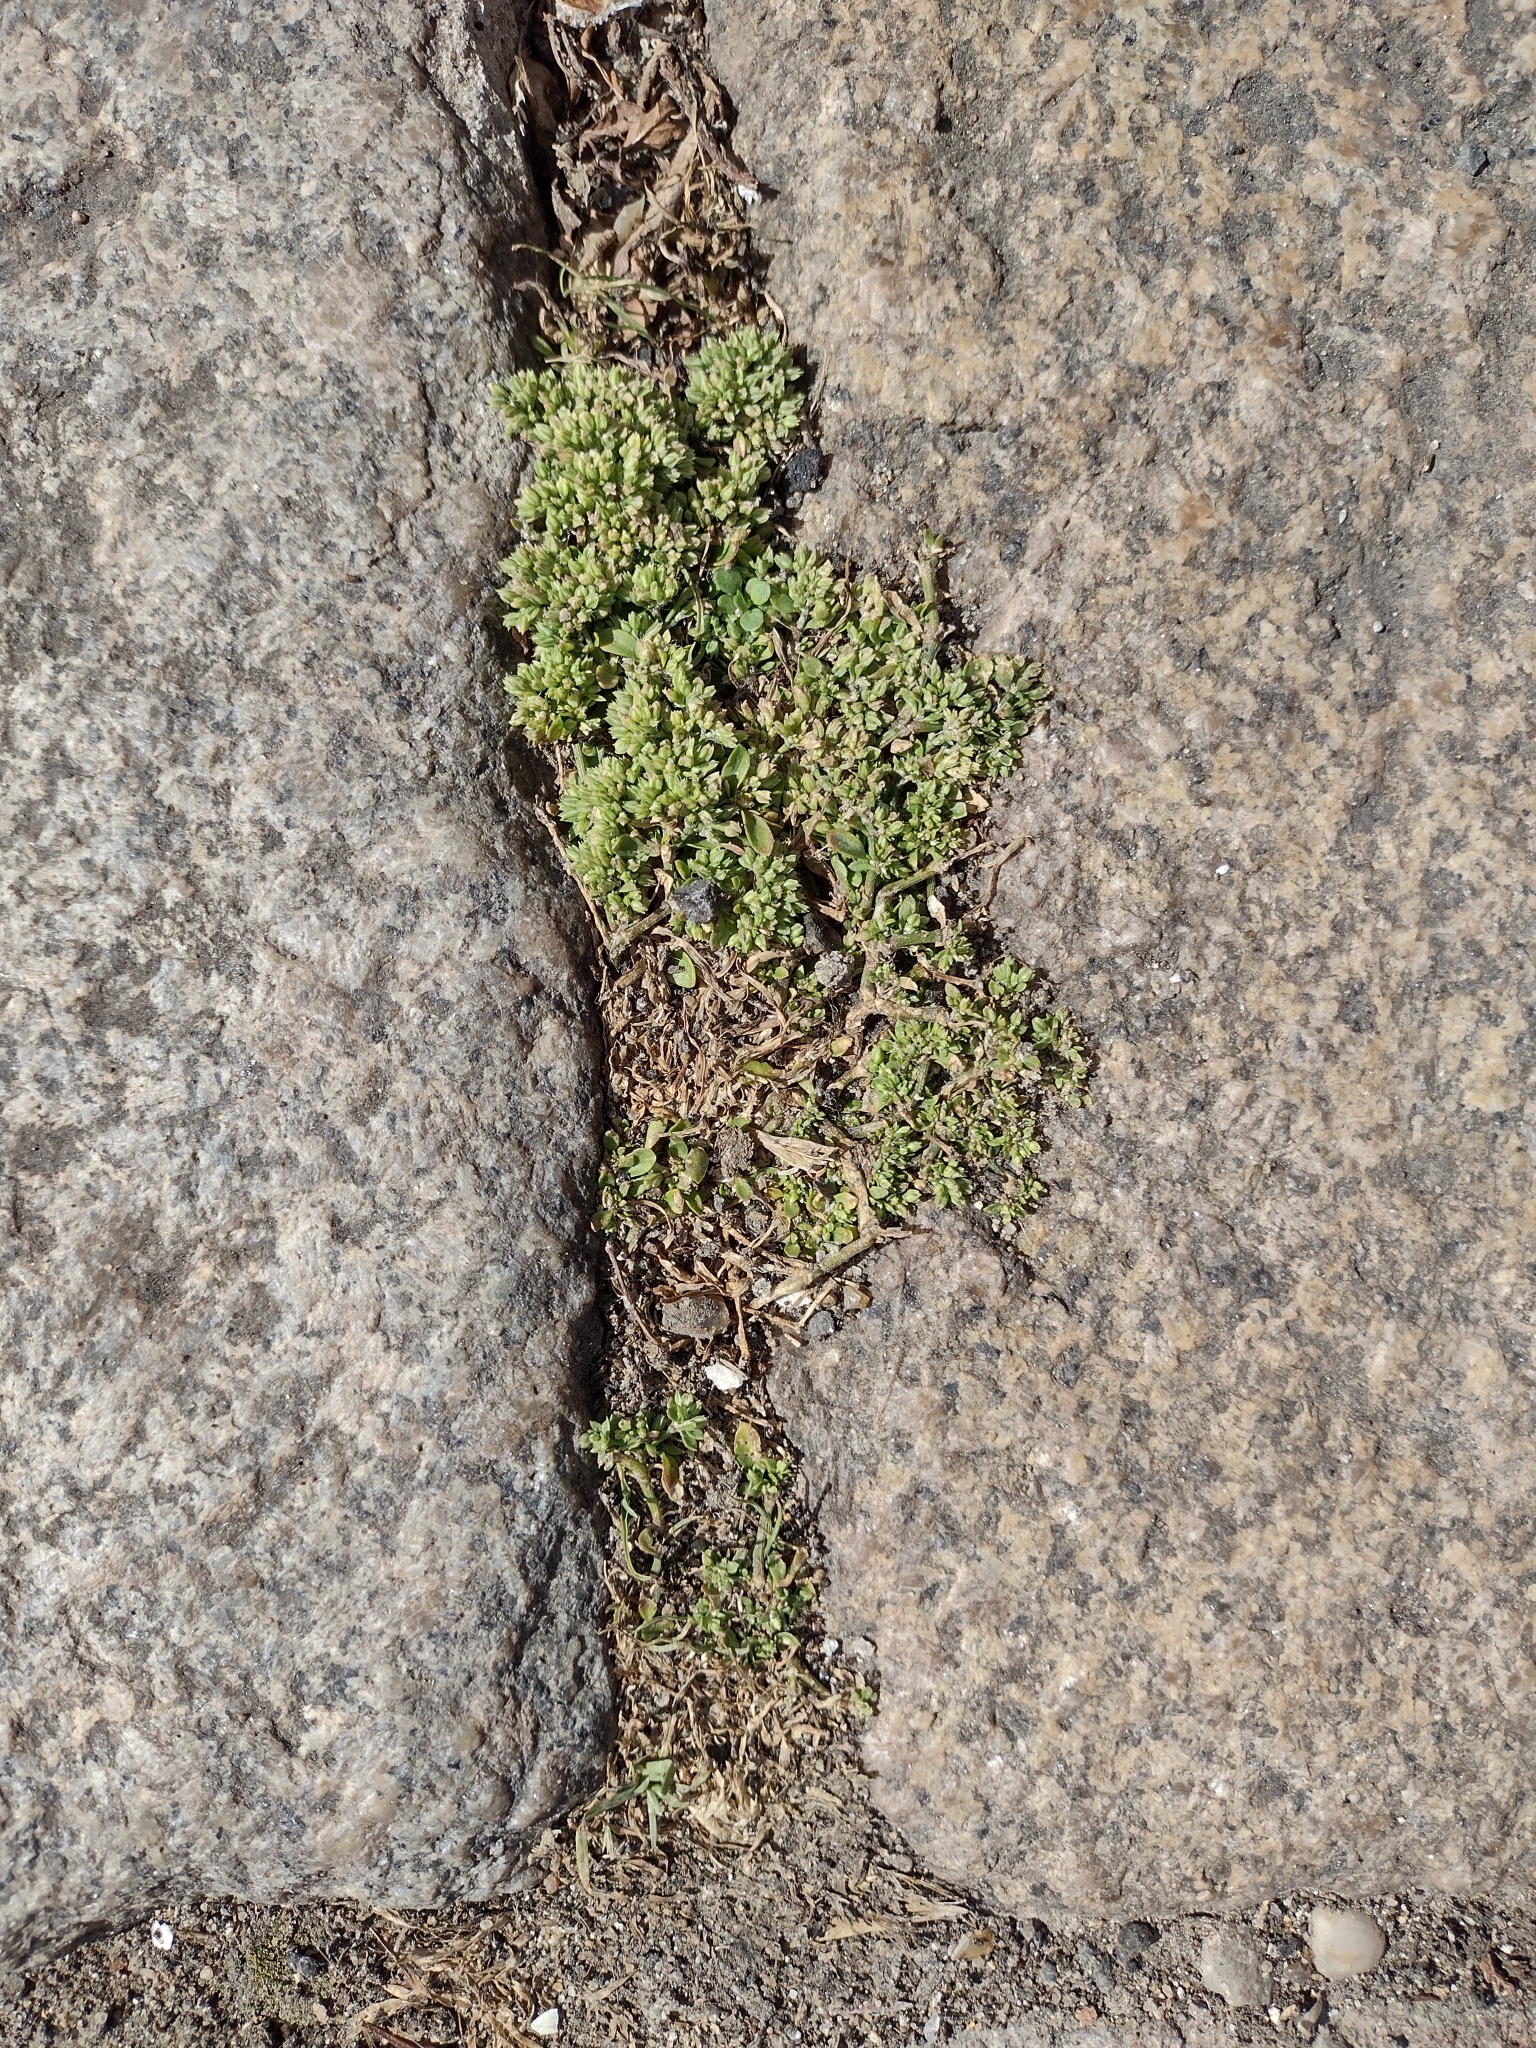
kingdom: Plantae
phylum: Tracheophyta
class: Magnoliopsida
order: Caryophyllales
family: Caryophyllaceae
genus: Polycarpon
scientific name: Polycarpon tetraphyllum
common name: Four-leaved all-seed
